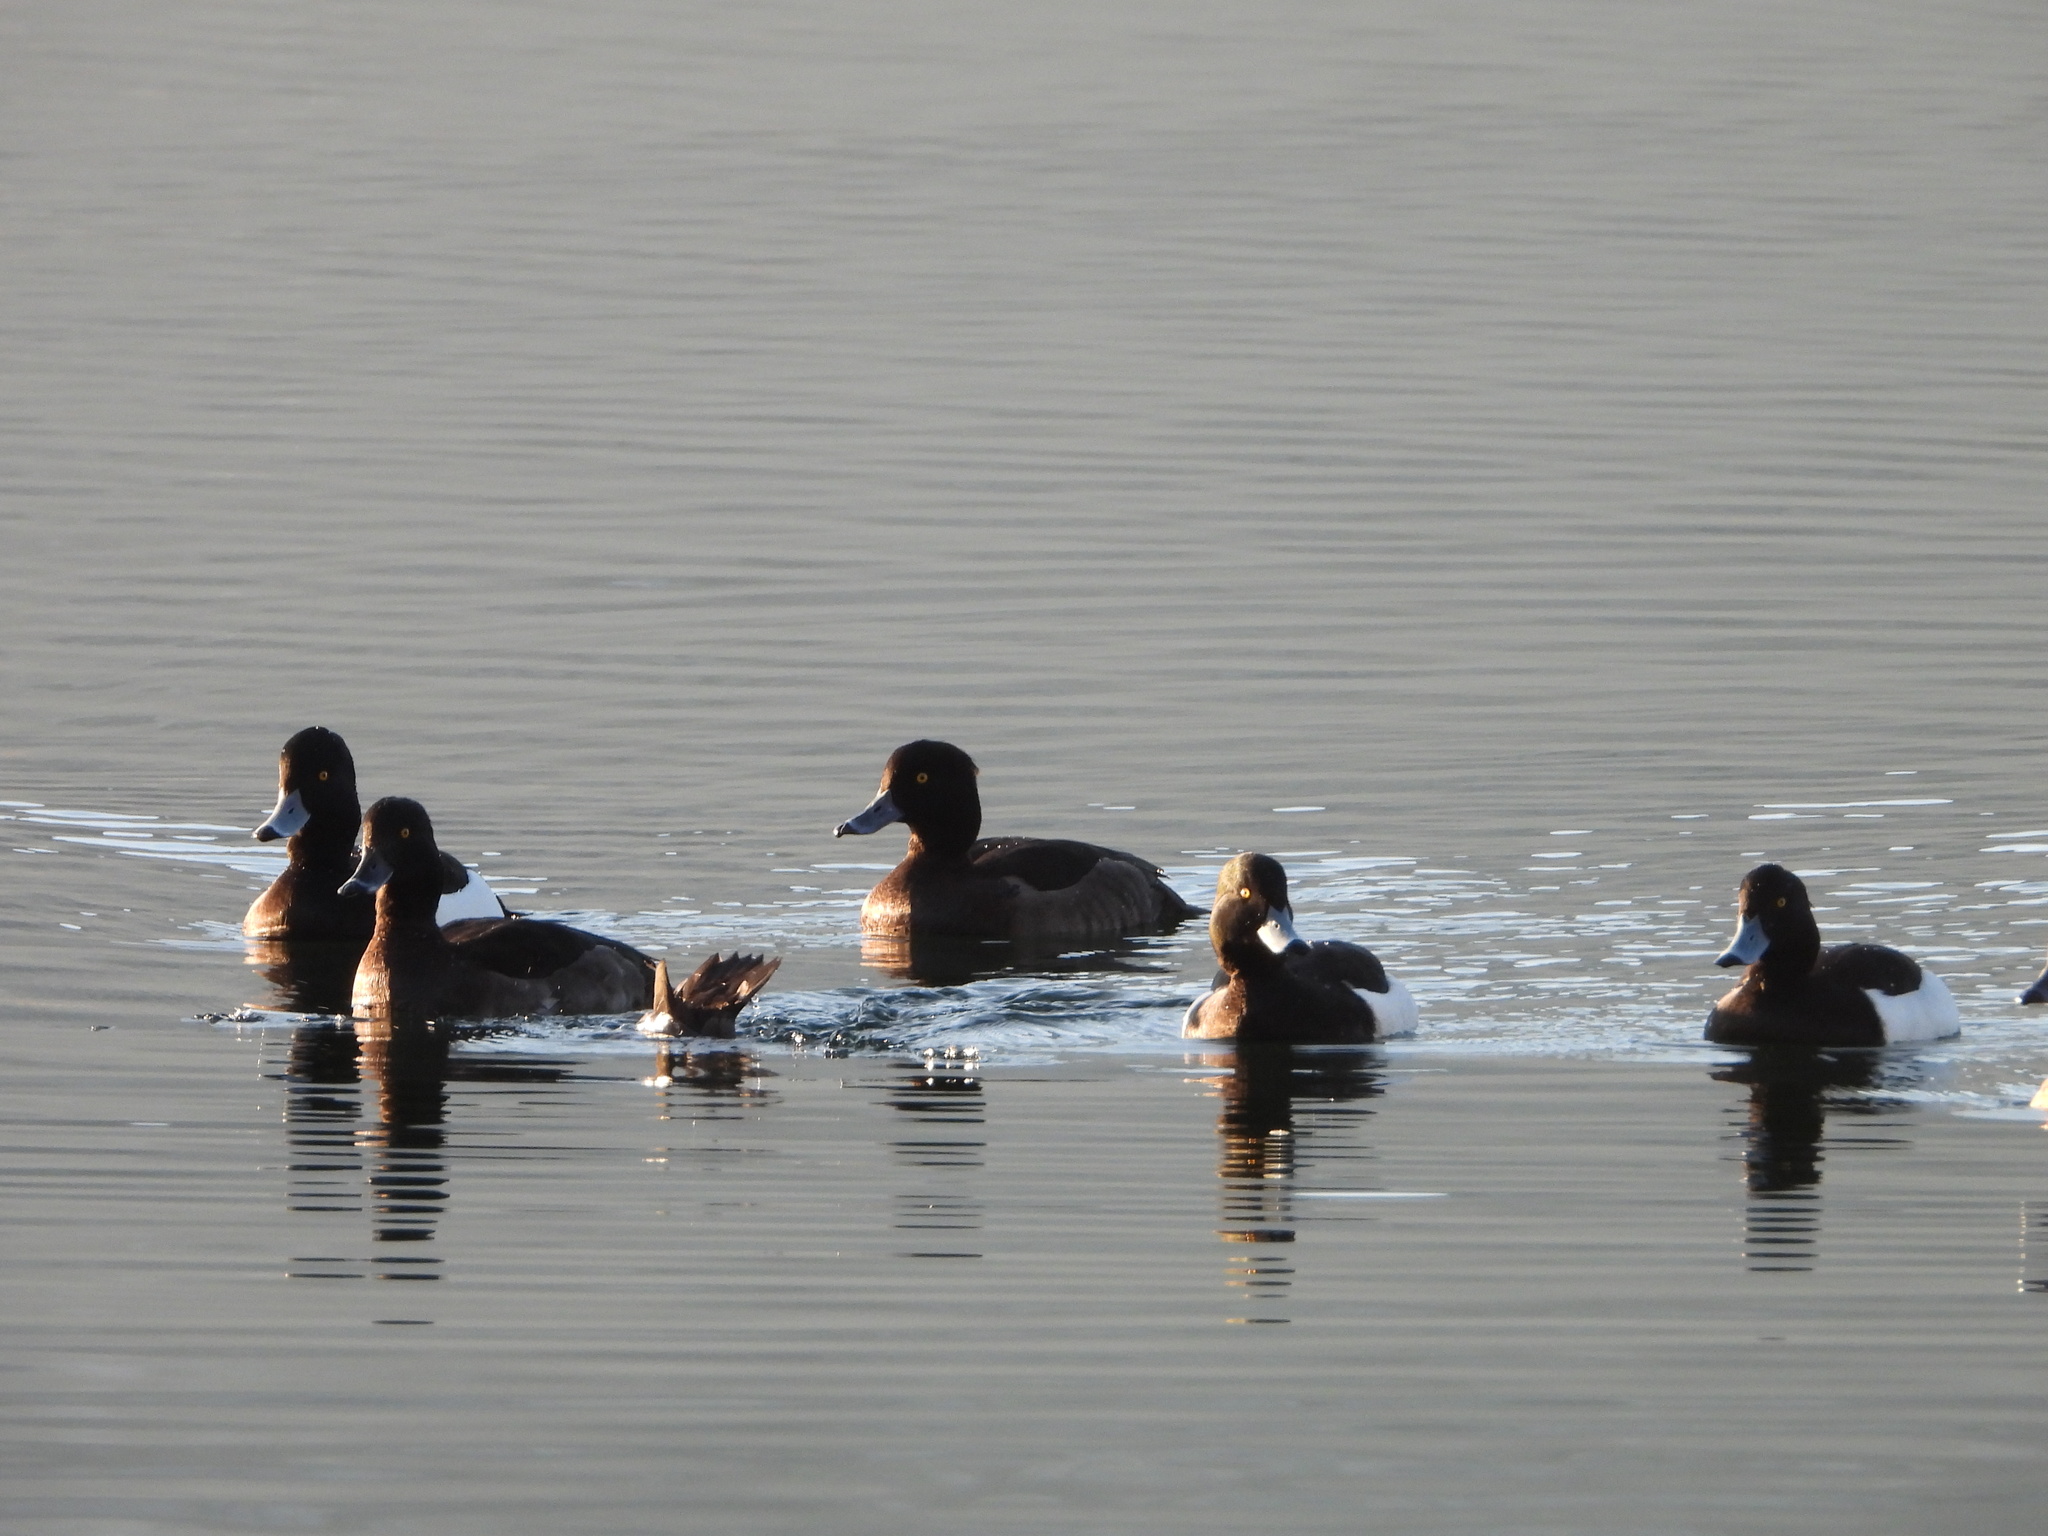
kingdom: Animalia
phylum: Chordata
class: Aves
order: Anseriformes
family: Anatidae
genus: Aythya
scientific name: Aythya fuligula
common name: Tufted duck
